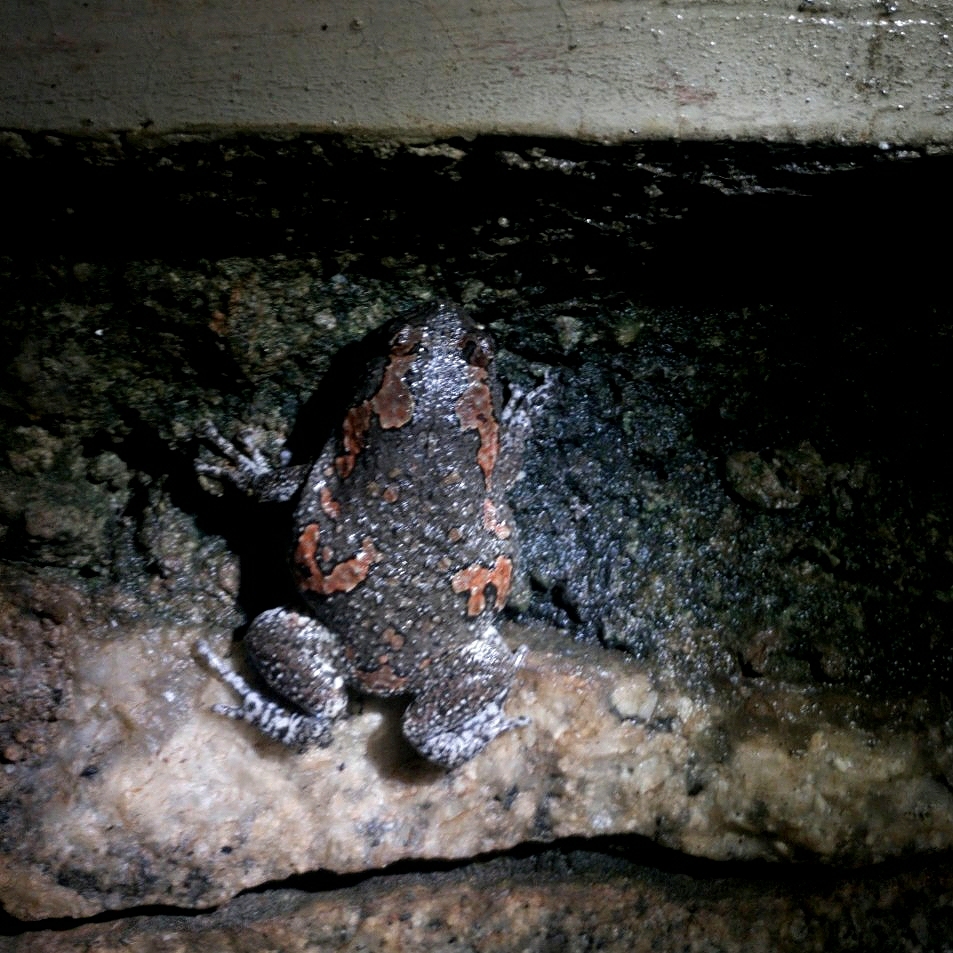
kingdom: Animalia
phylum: Chordata
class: Amphibia
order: Anura
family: Microhylidae
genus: Uperodon
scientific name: Uperodon taprobanicus
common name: Ceylon kaloula
